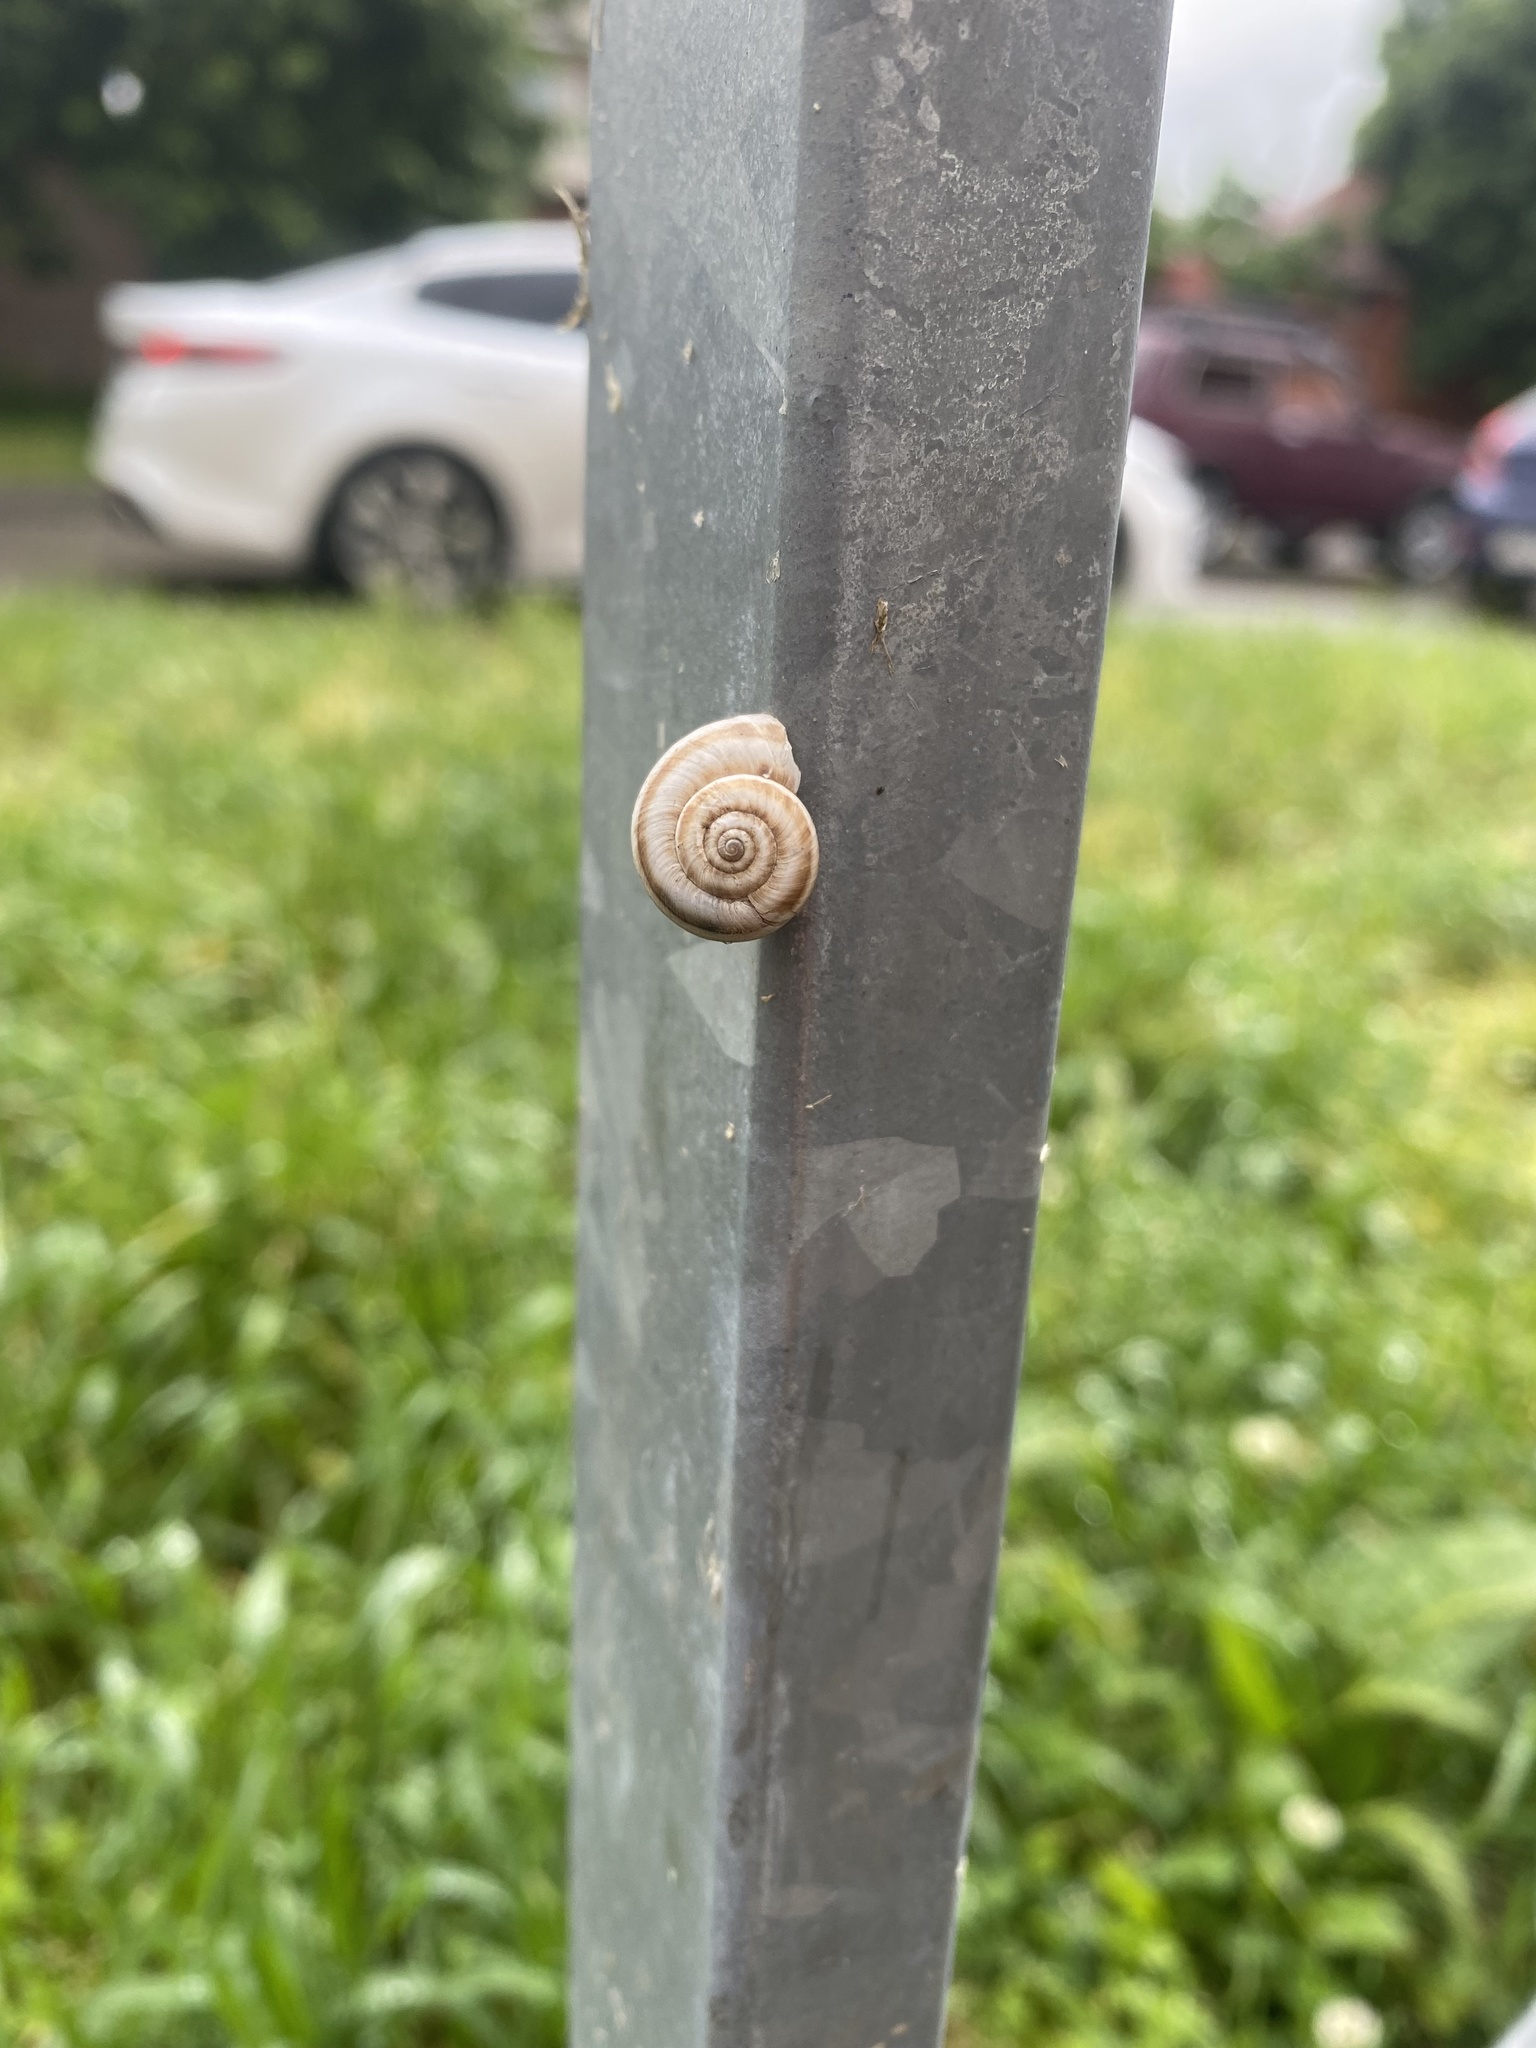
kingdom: Animalia
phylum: Mollusca
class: Gastropoda
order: Stylommatophora
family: Geomitridae
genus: Xeropicta
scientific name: Xeropicta derbentina
